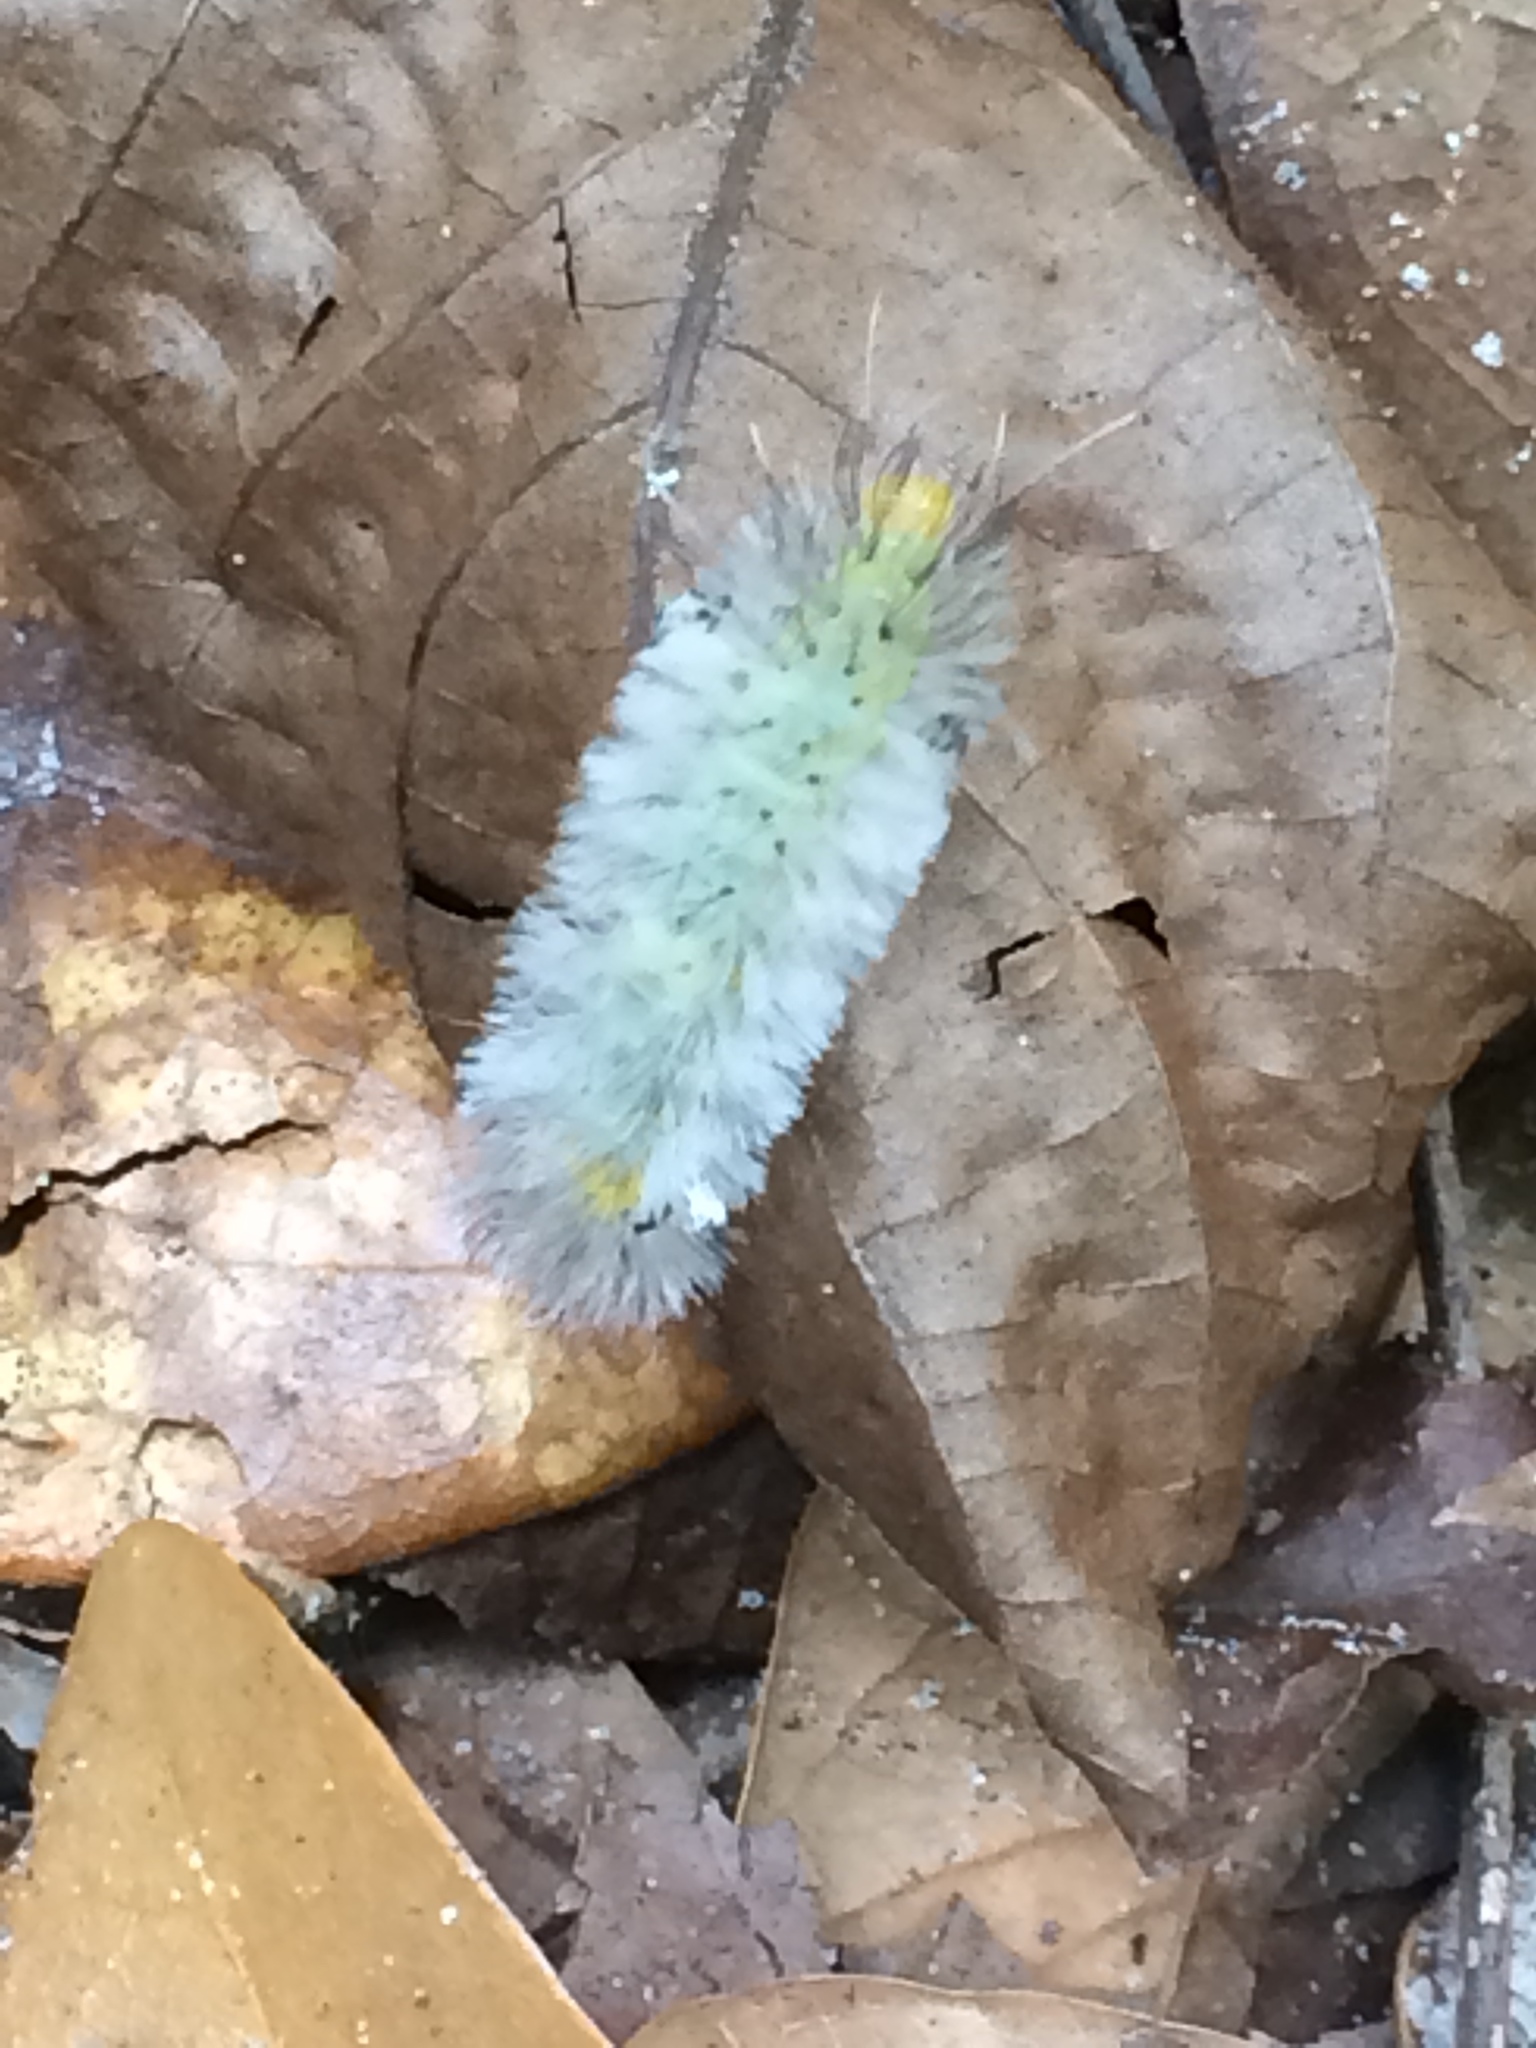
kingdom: Animalia
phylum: Arthropoda
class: Insecta
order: Lepidoptera
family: Erebidae
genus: Cosmosoma
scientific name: Cosmosoma myrodora
